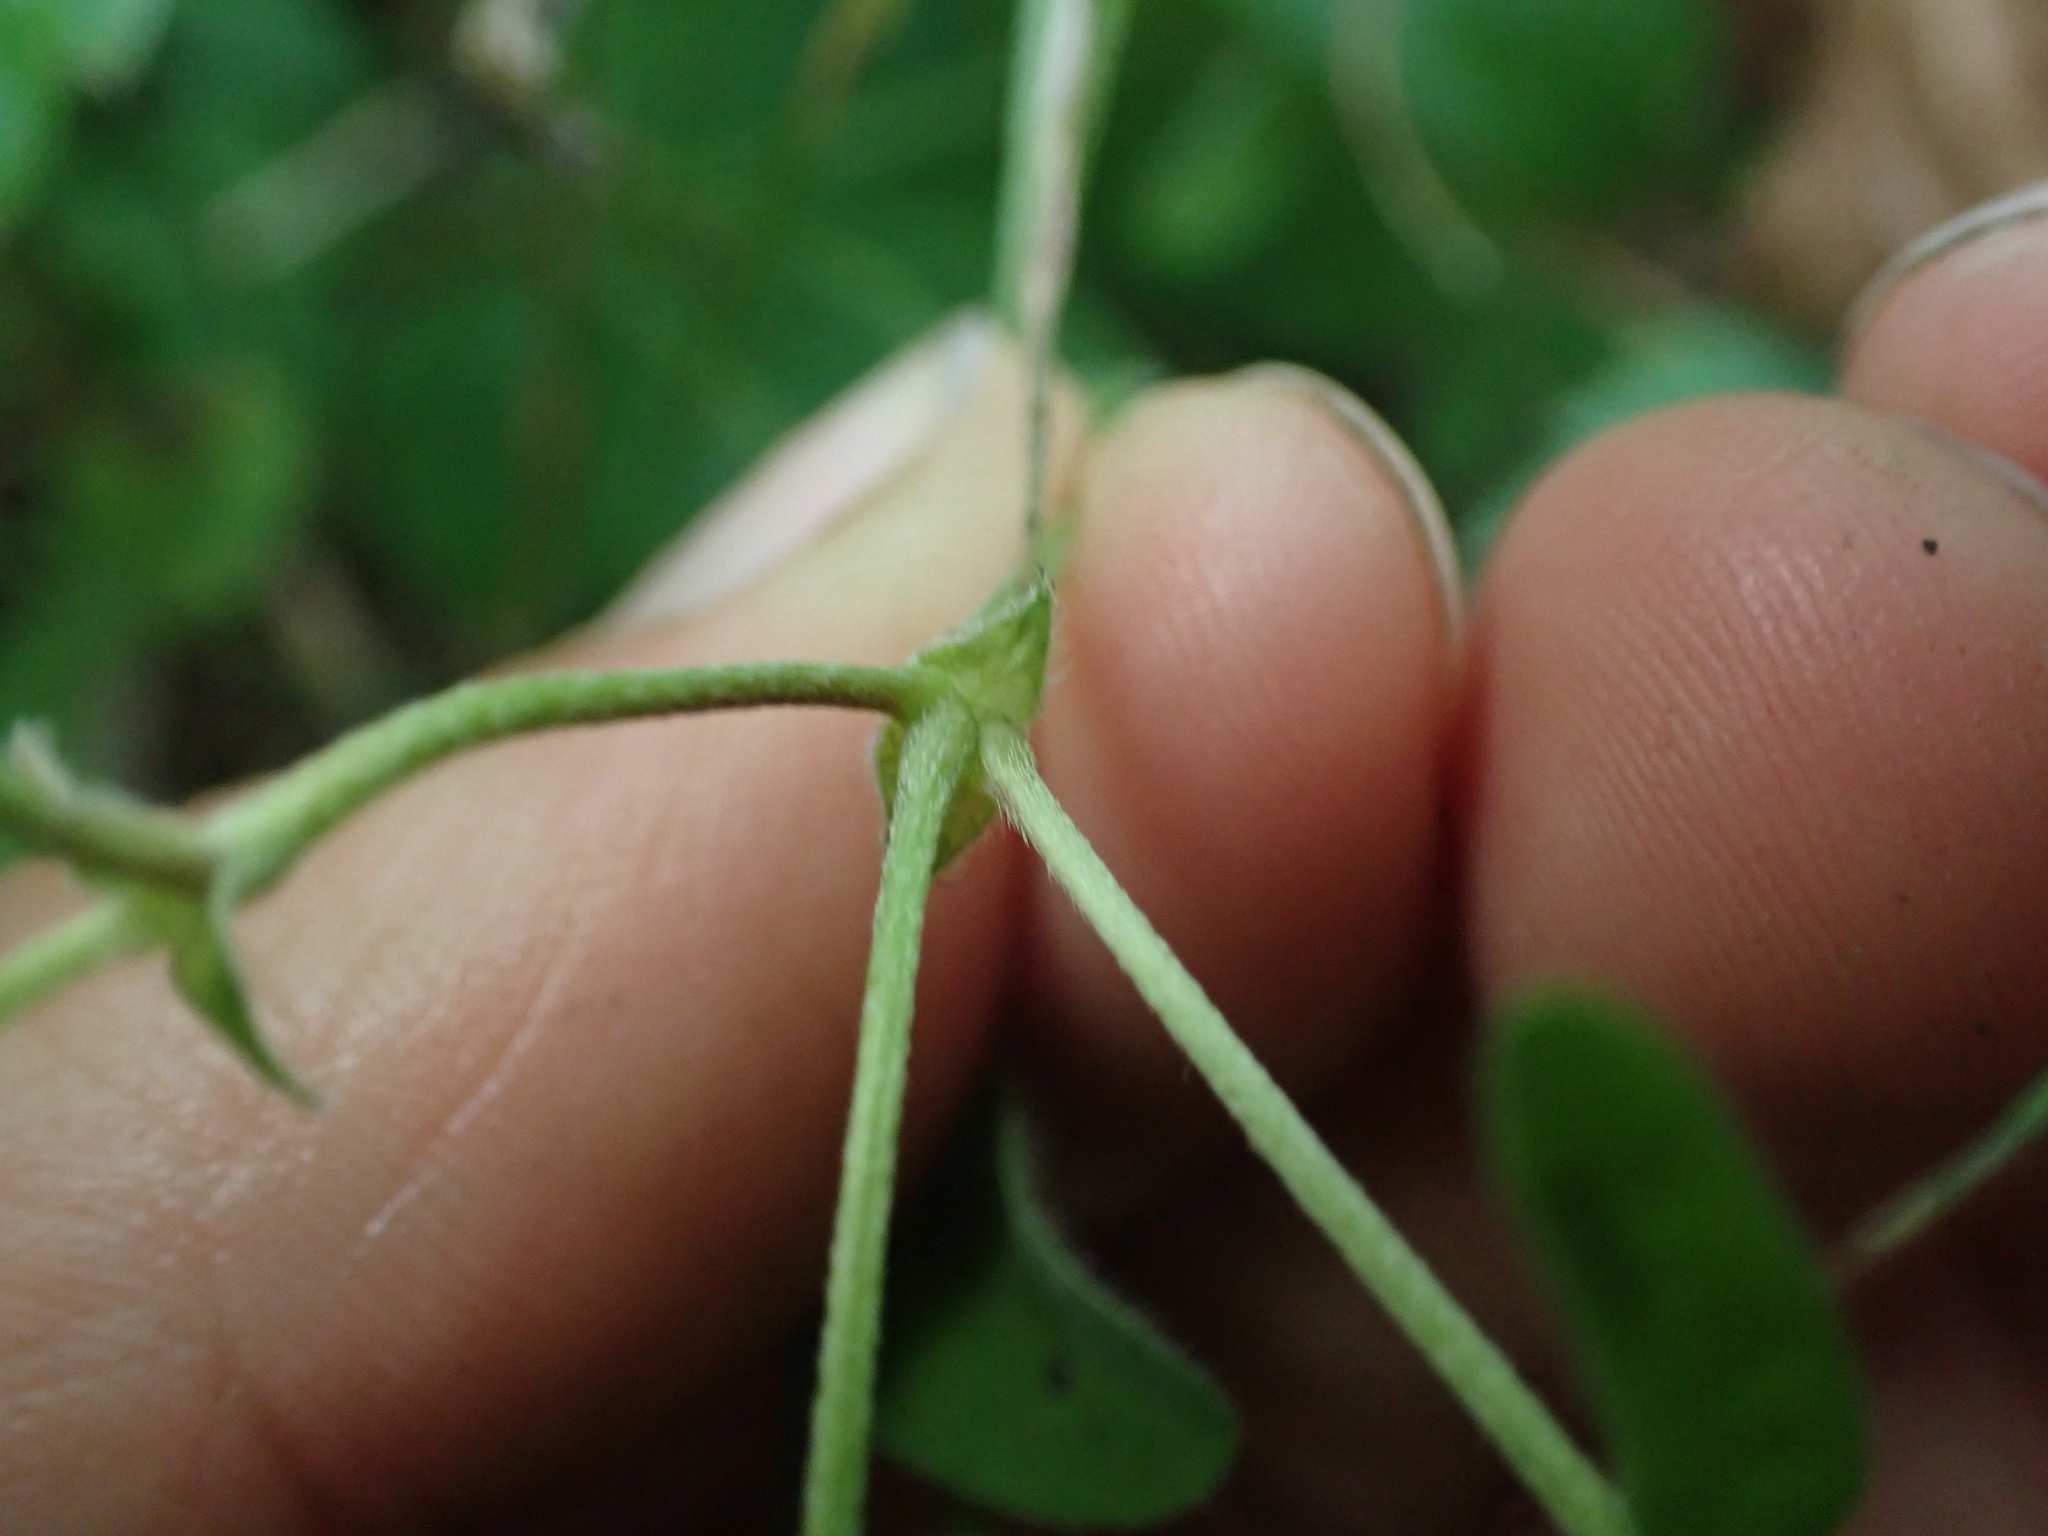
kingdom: Plantae
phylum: Tracheophyta
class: Magnoliopsida
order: Fabales
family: Fabaceae
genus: Astragalus
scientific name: Astragalus alpinus
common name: Alpine milk-vetch
